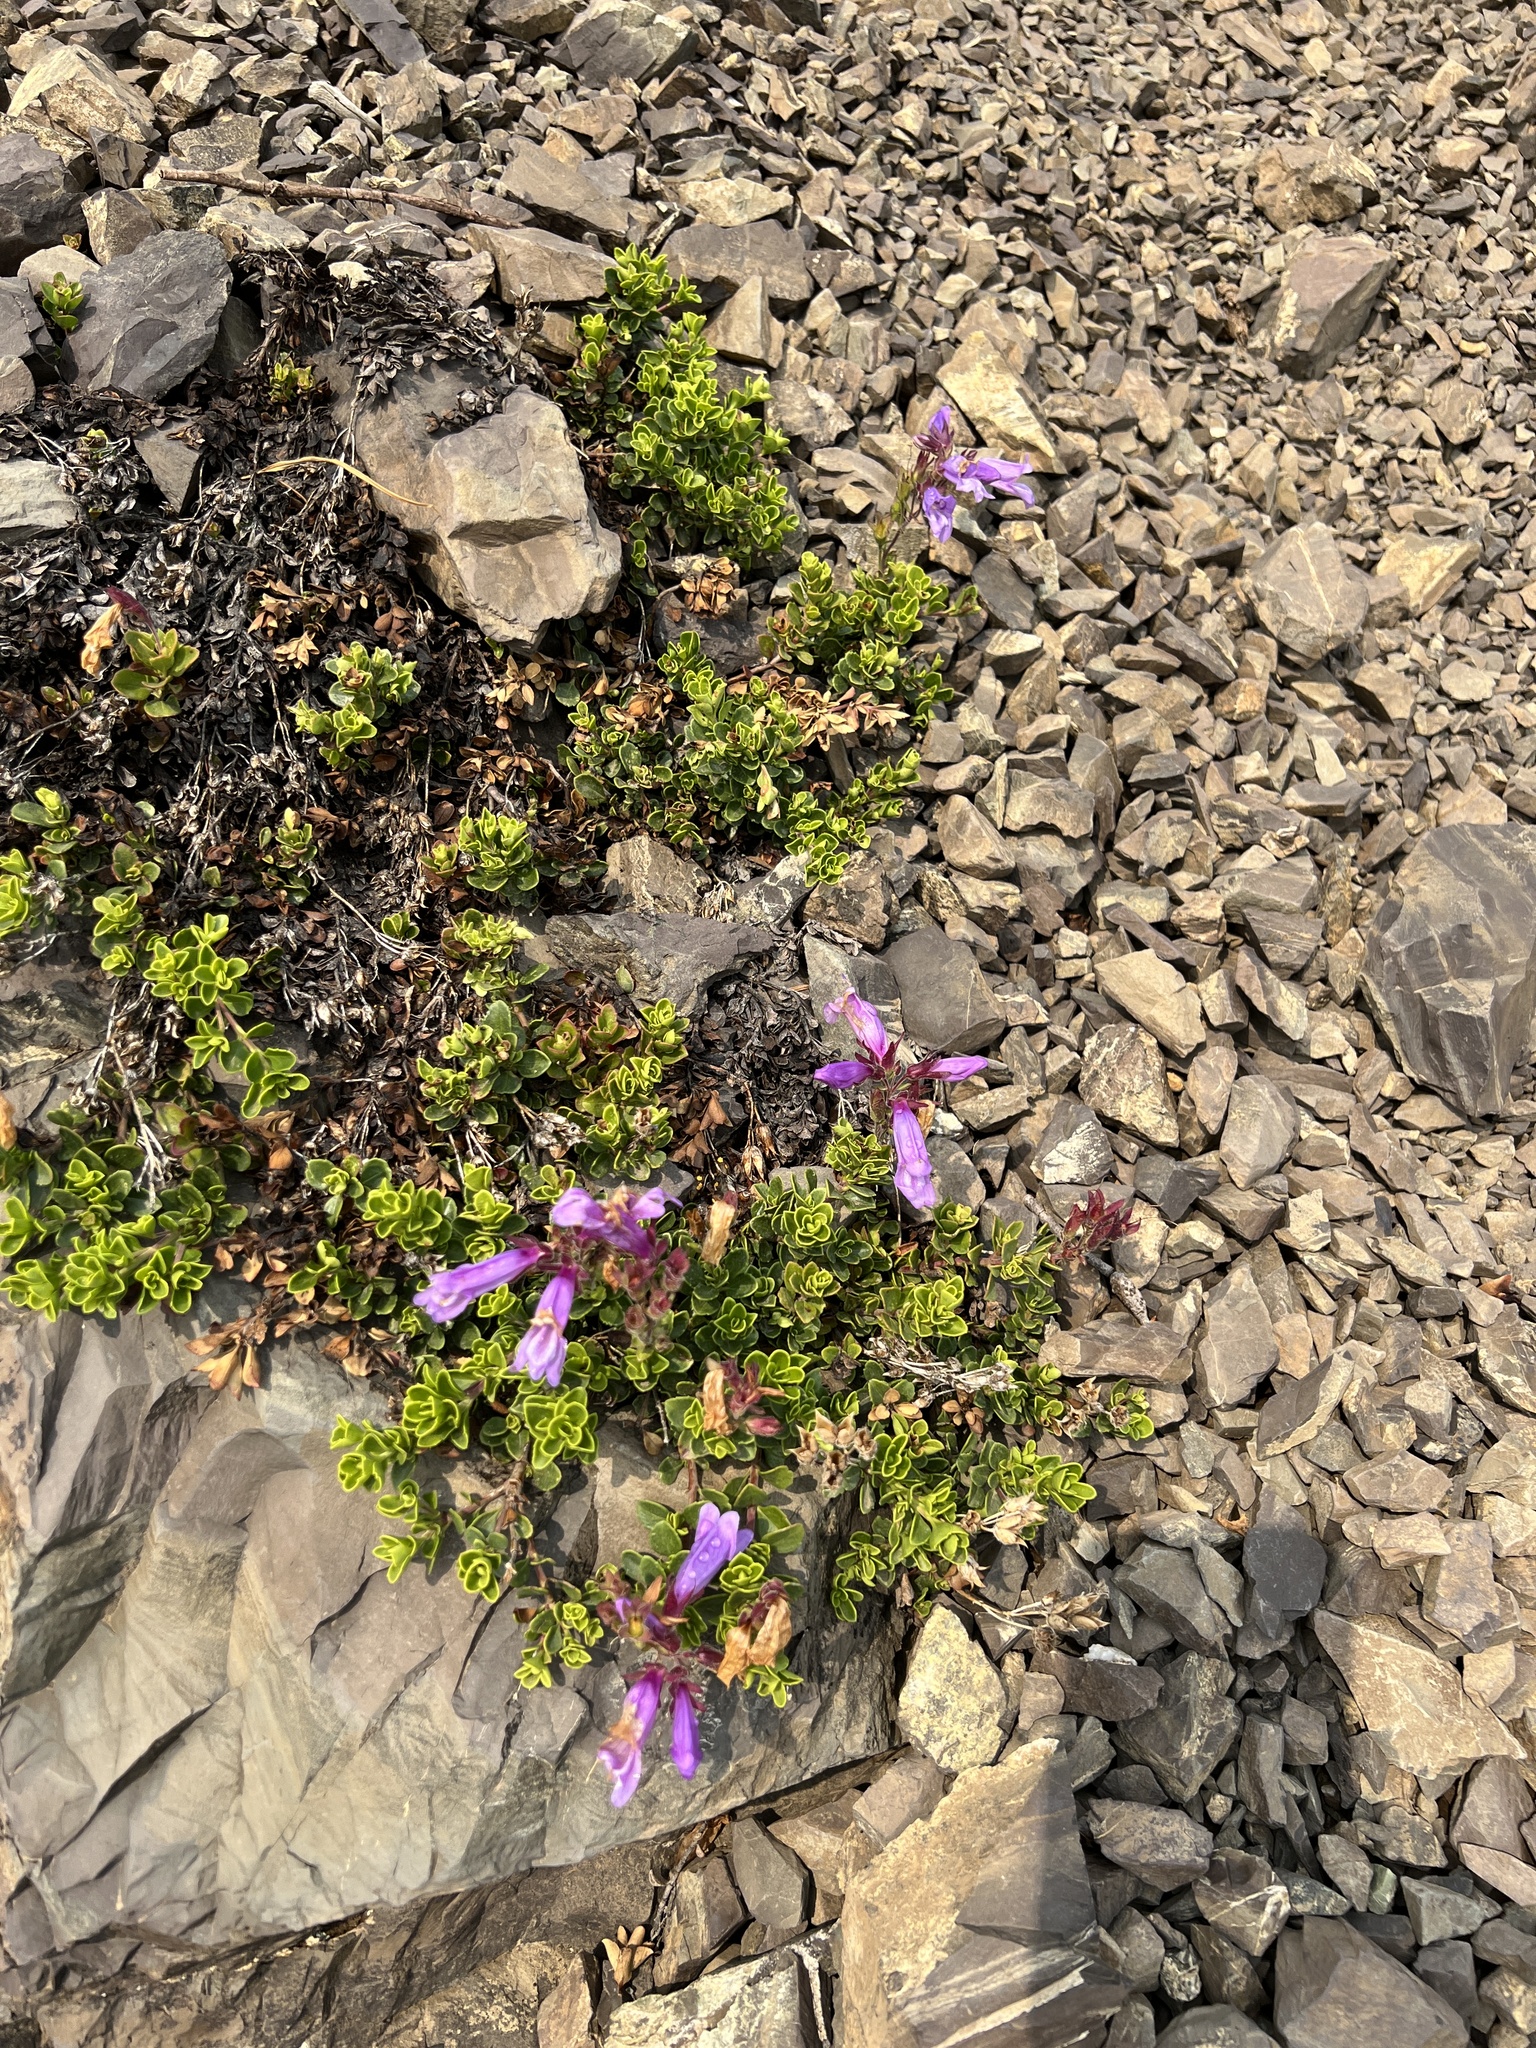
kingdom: Plantae
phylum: Tracheophyta
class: Magnoliopsida
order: Lamiales
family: Plantaginaceae
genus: Penstemon
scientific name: Penstemon davidsonii
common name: Davidson's penstemon
